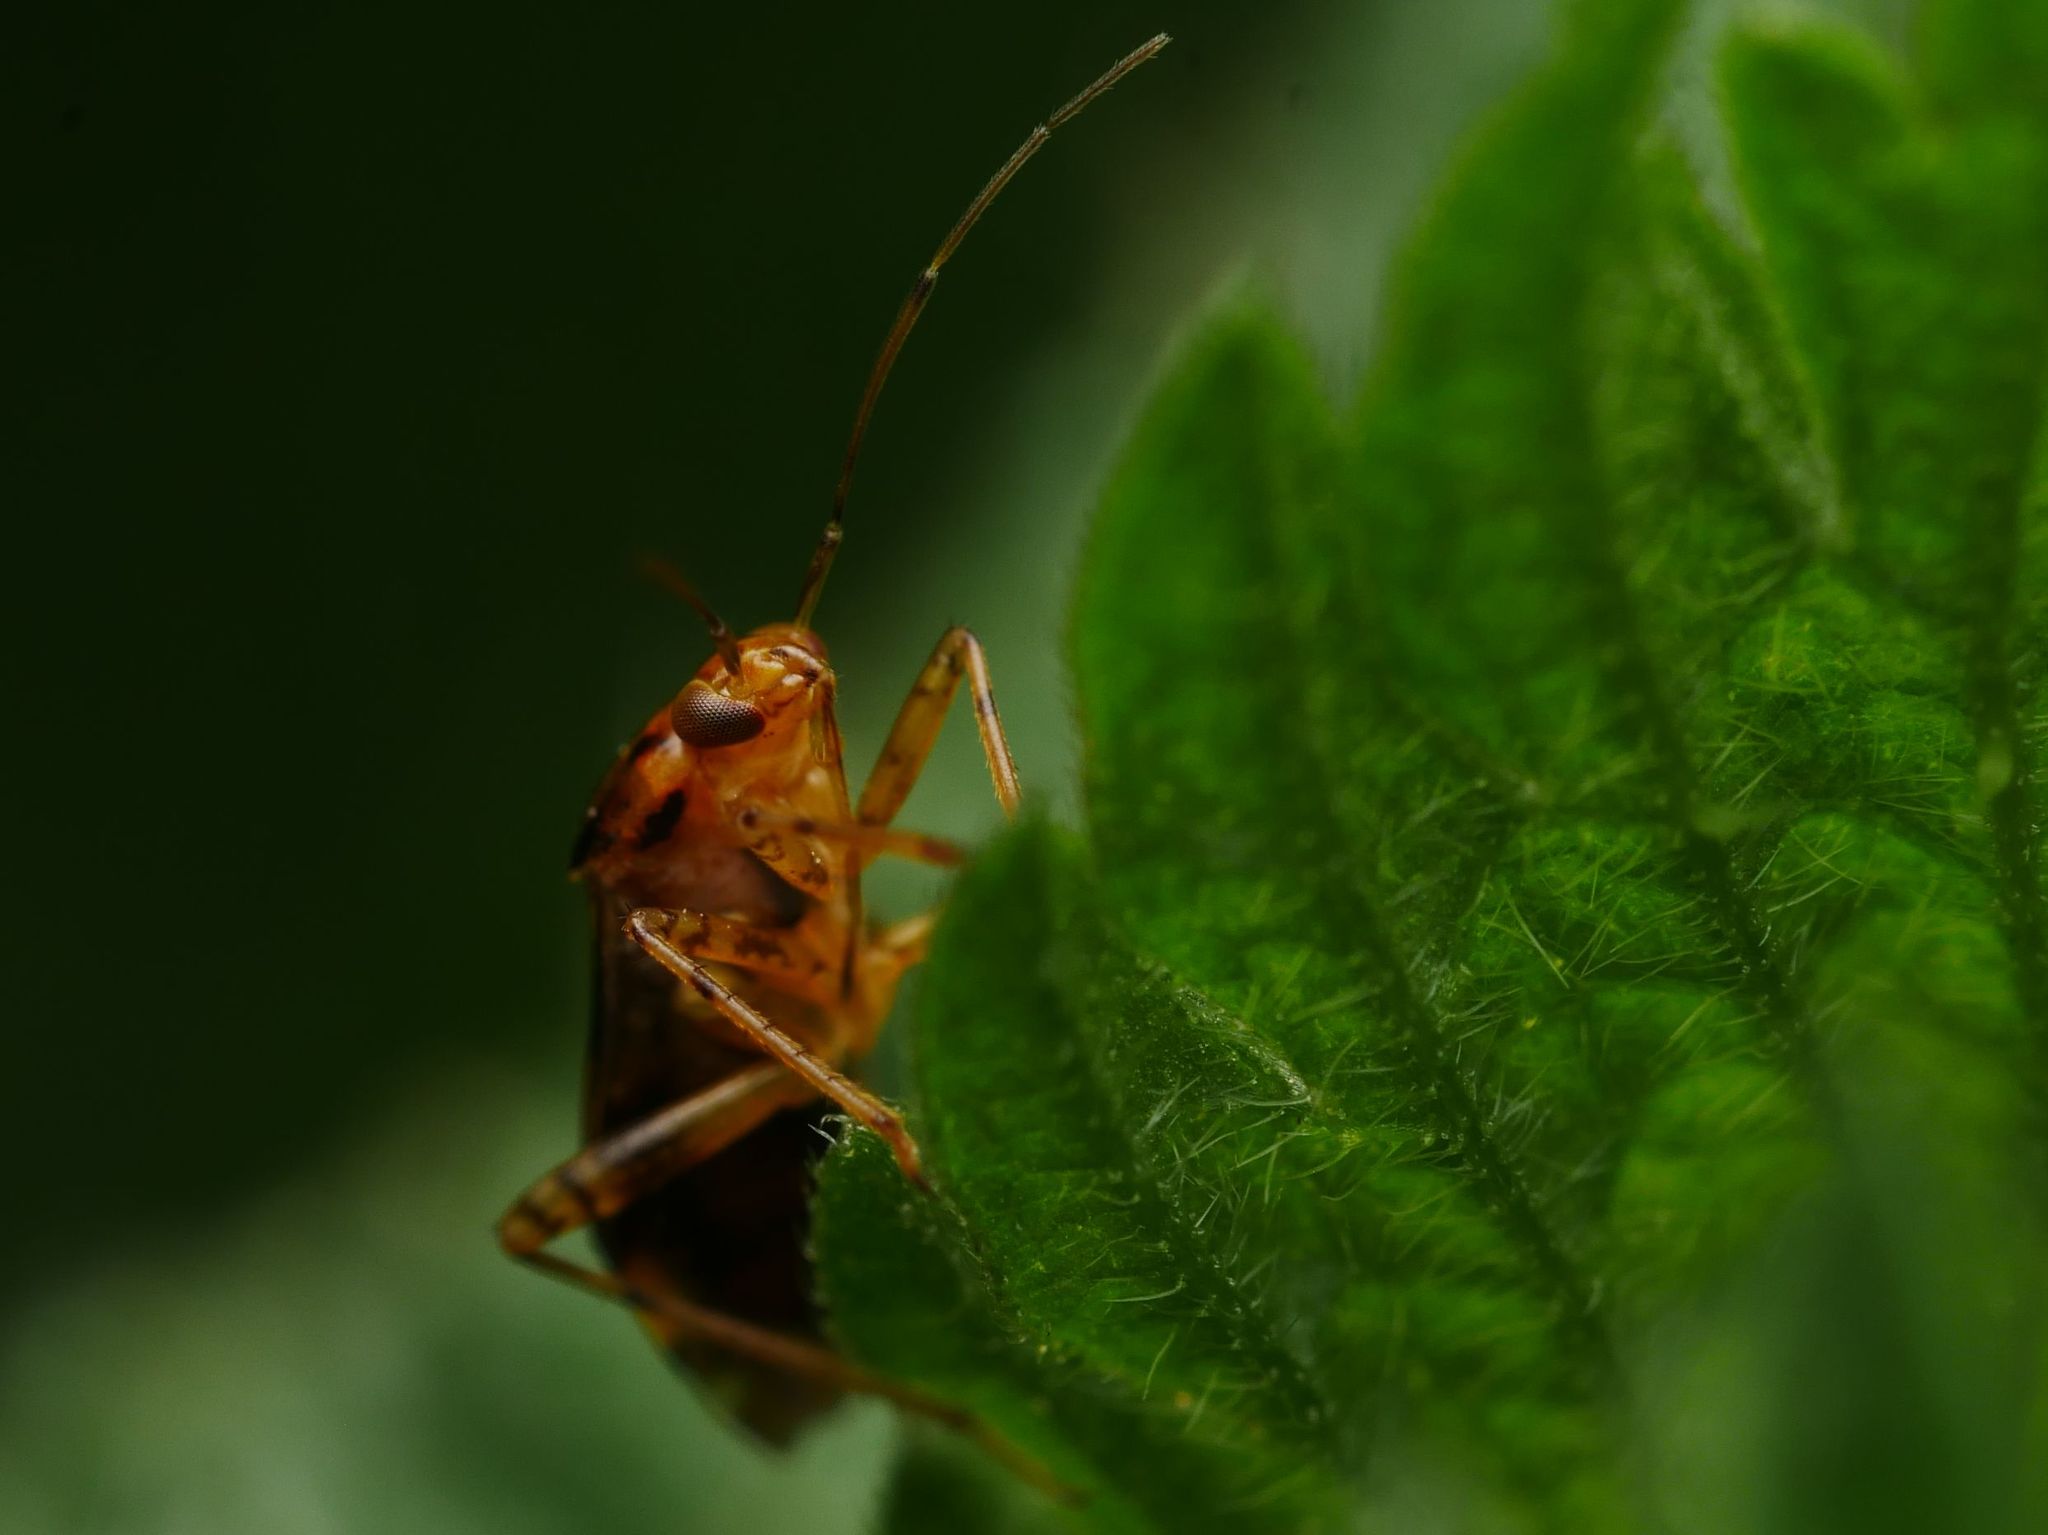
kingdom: Animalia
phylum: Arthropoda
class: Insecta
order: Hemiptera
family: Miridae
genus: Liocoris
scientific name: Liocoris tripustulatus
